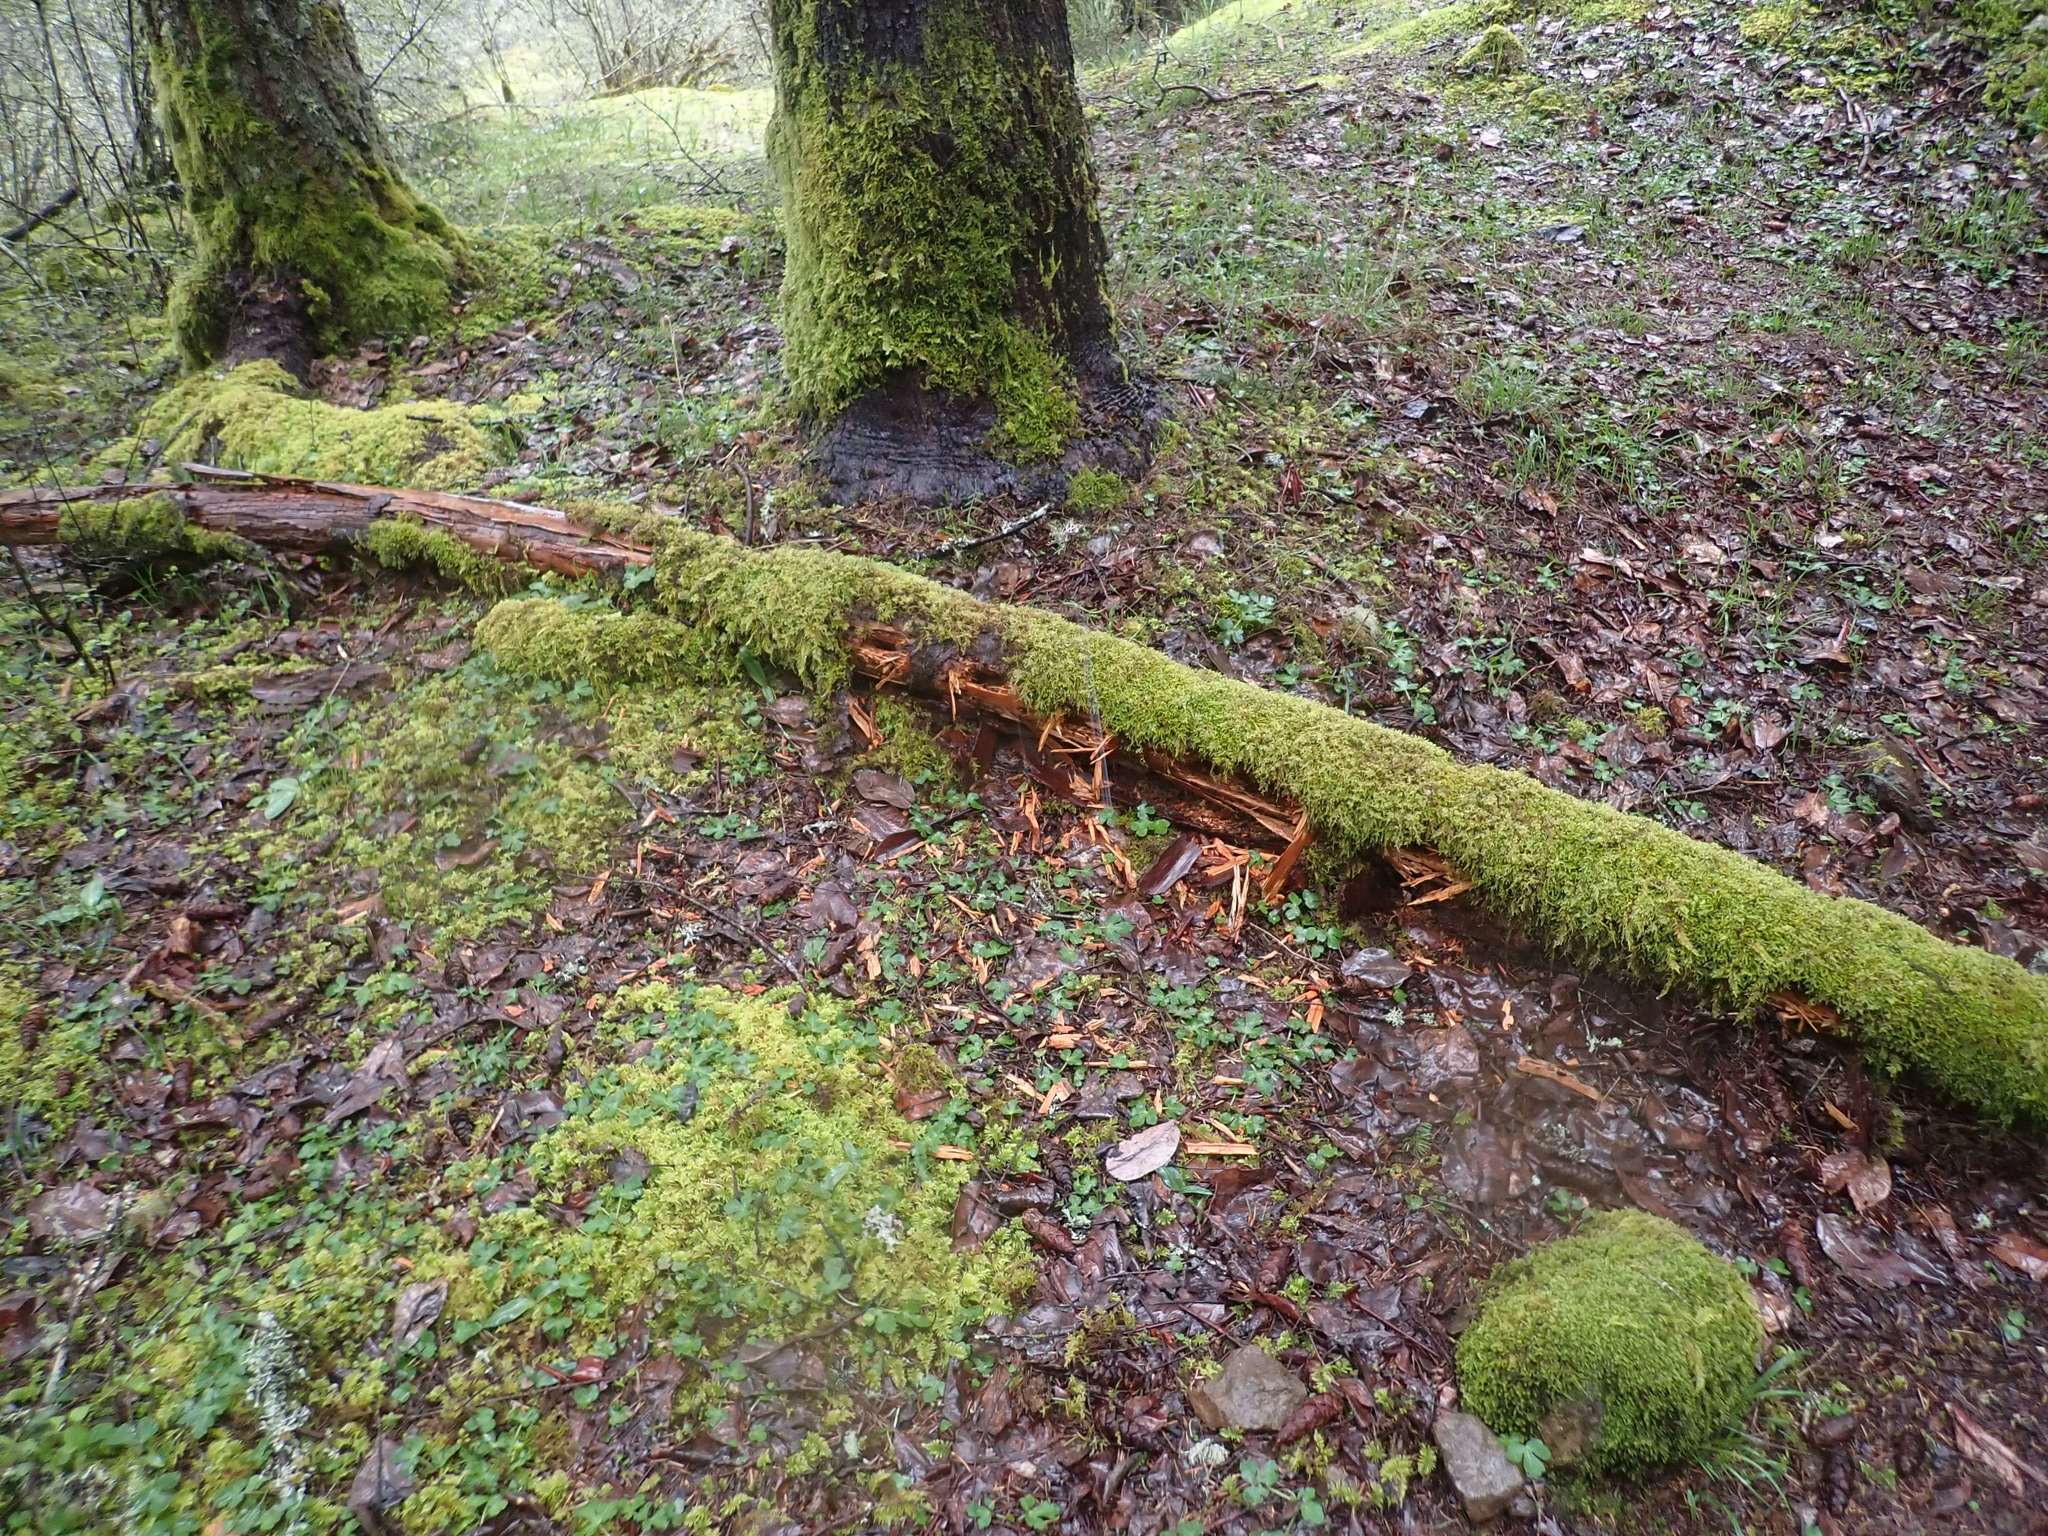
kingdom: Animalia
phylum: Chordata
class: Aves
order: Piciformes
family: Picidae
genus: Dryocopus
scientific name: Dryocopus pileatus
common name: Pileated woodpecker
